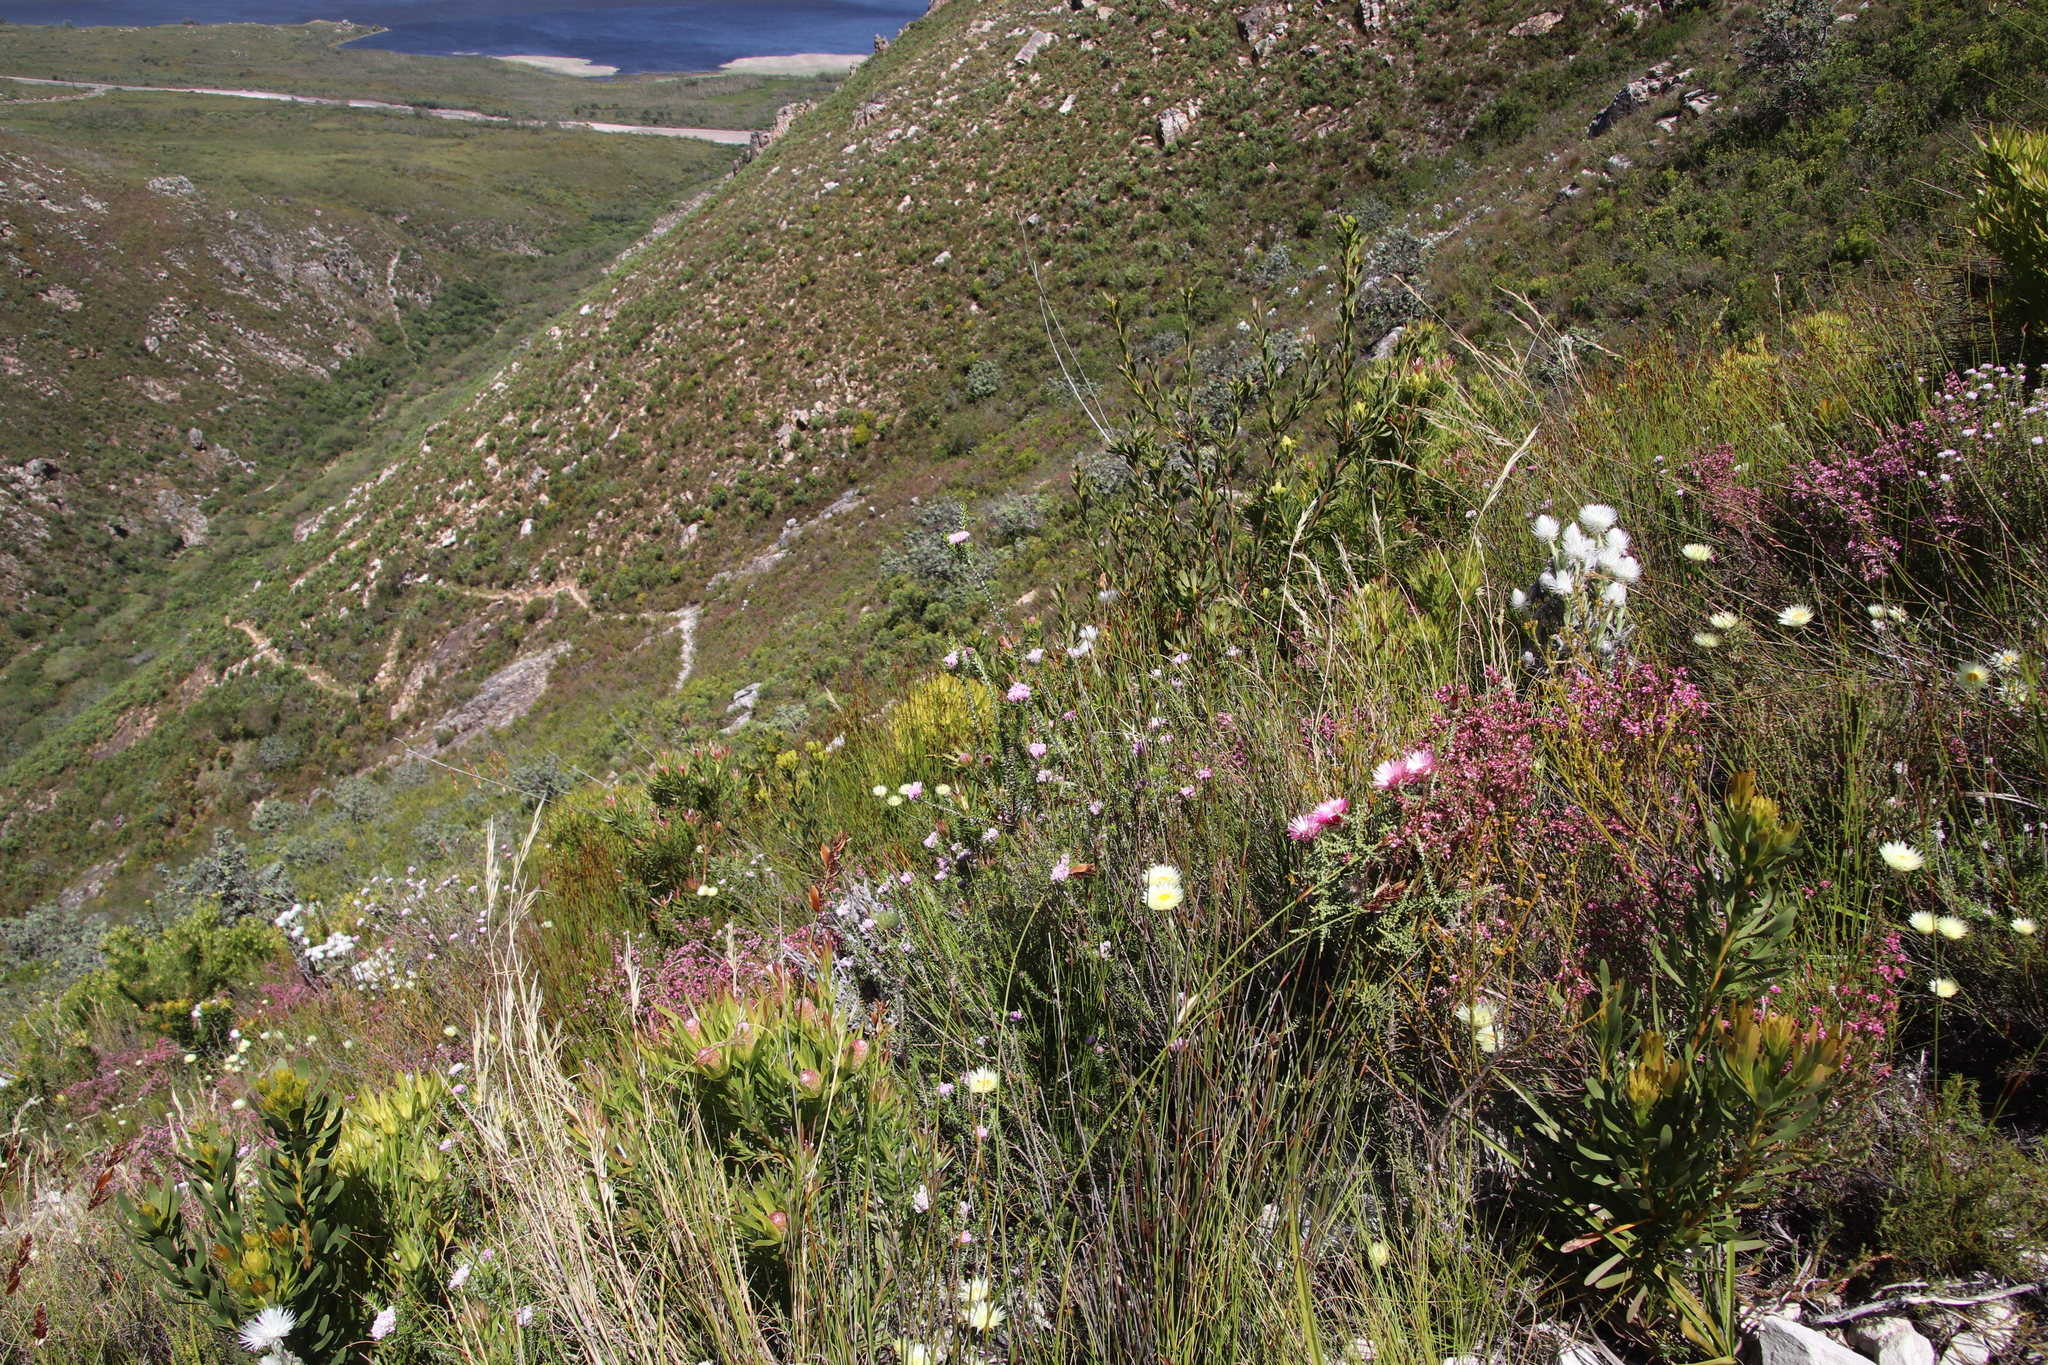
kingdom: Plantae
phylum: Tracheophyta
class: Magnoliopsida
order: Asterales
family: Asteraceae
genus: Metalasia
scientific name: Metalasia erubescens
